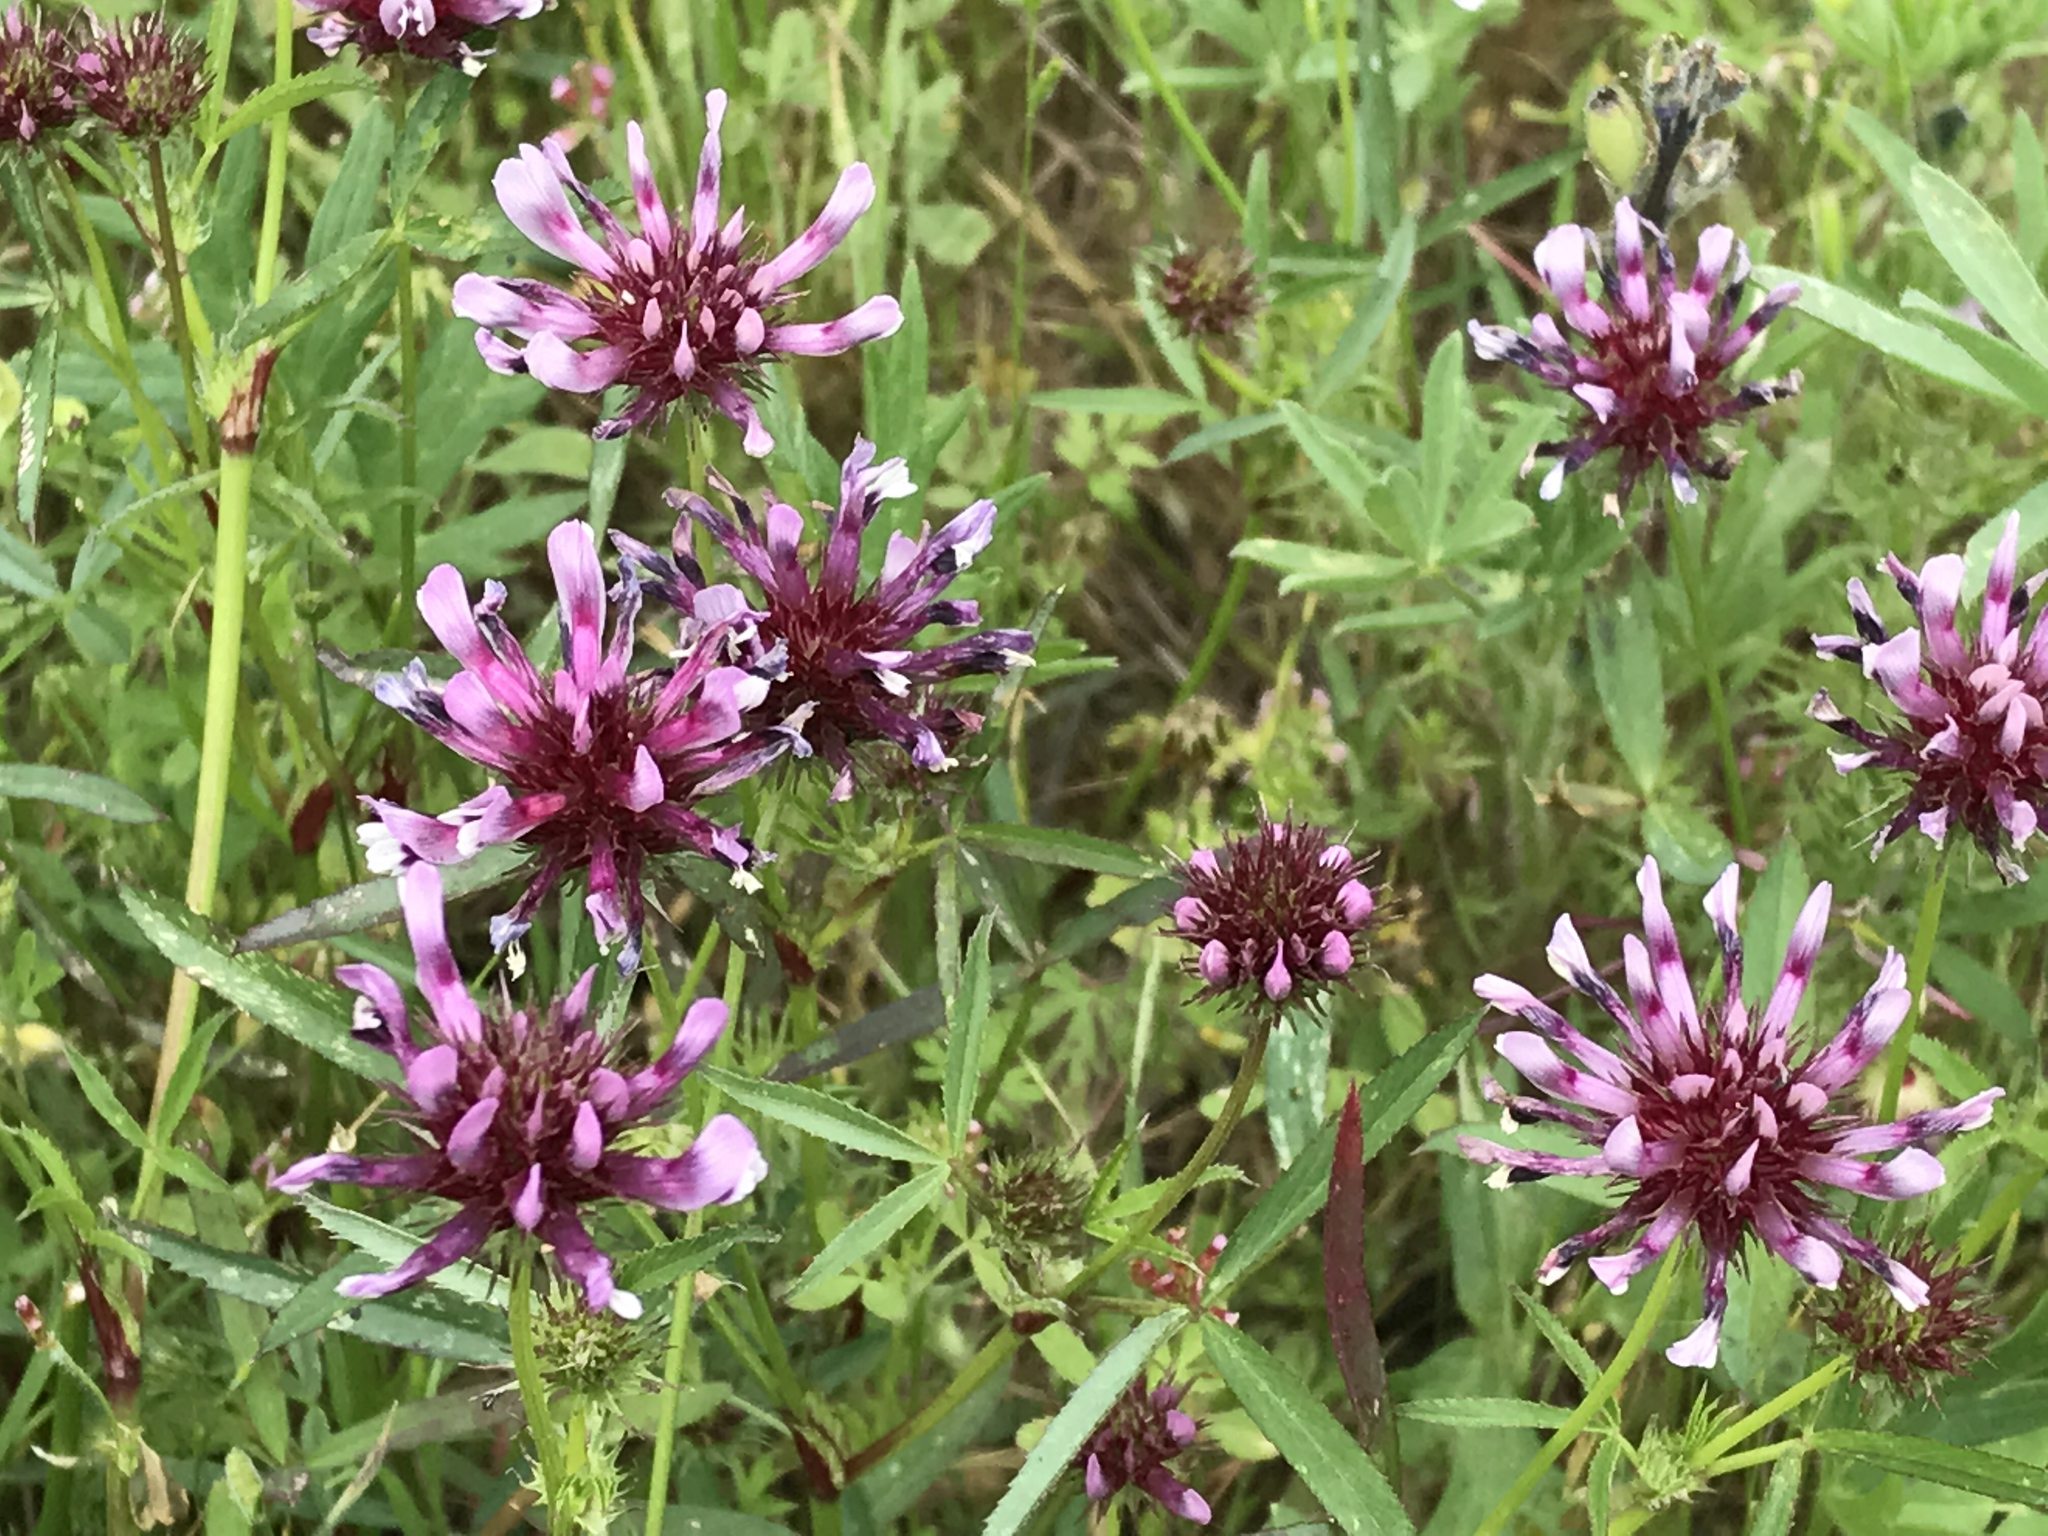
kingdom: Plantae
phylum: Tracheophyta
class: Magnoliopsida
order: Fabales
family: Fabaceae
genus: Trifolium
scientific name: Trifolium willdenovii
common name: Tomcat clover
